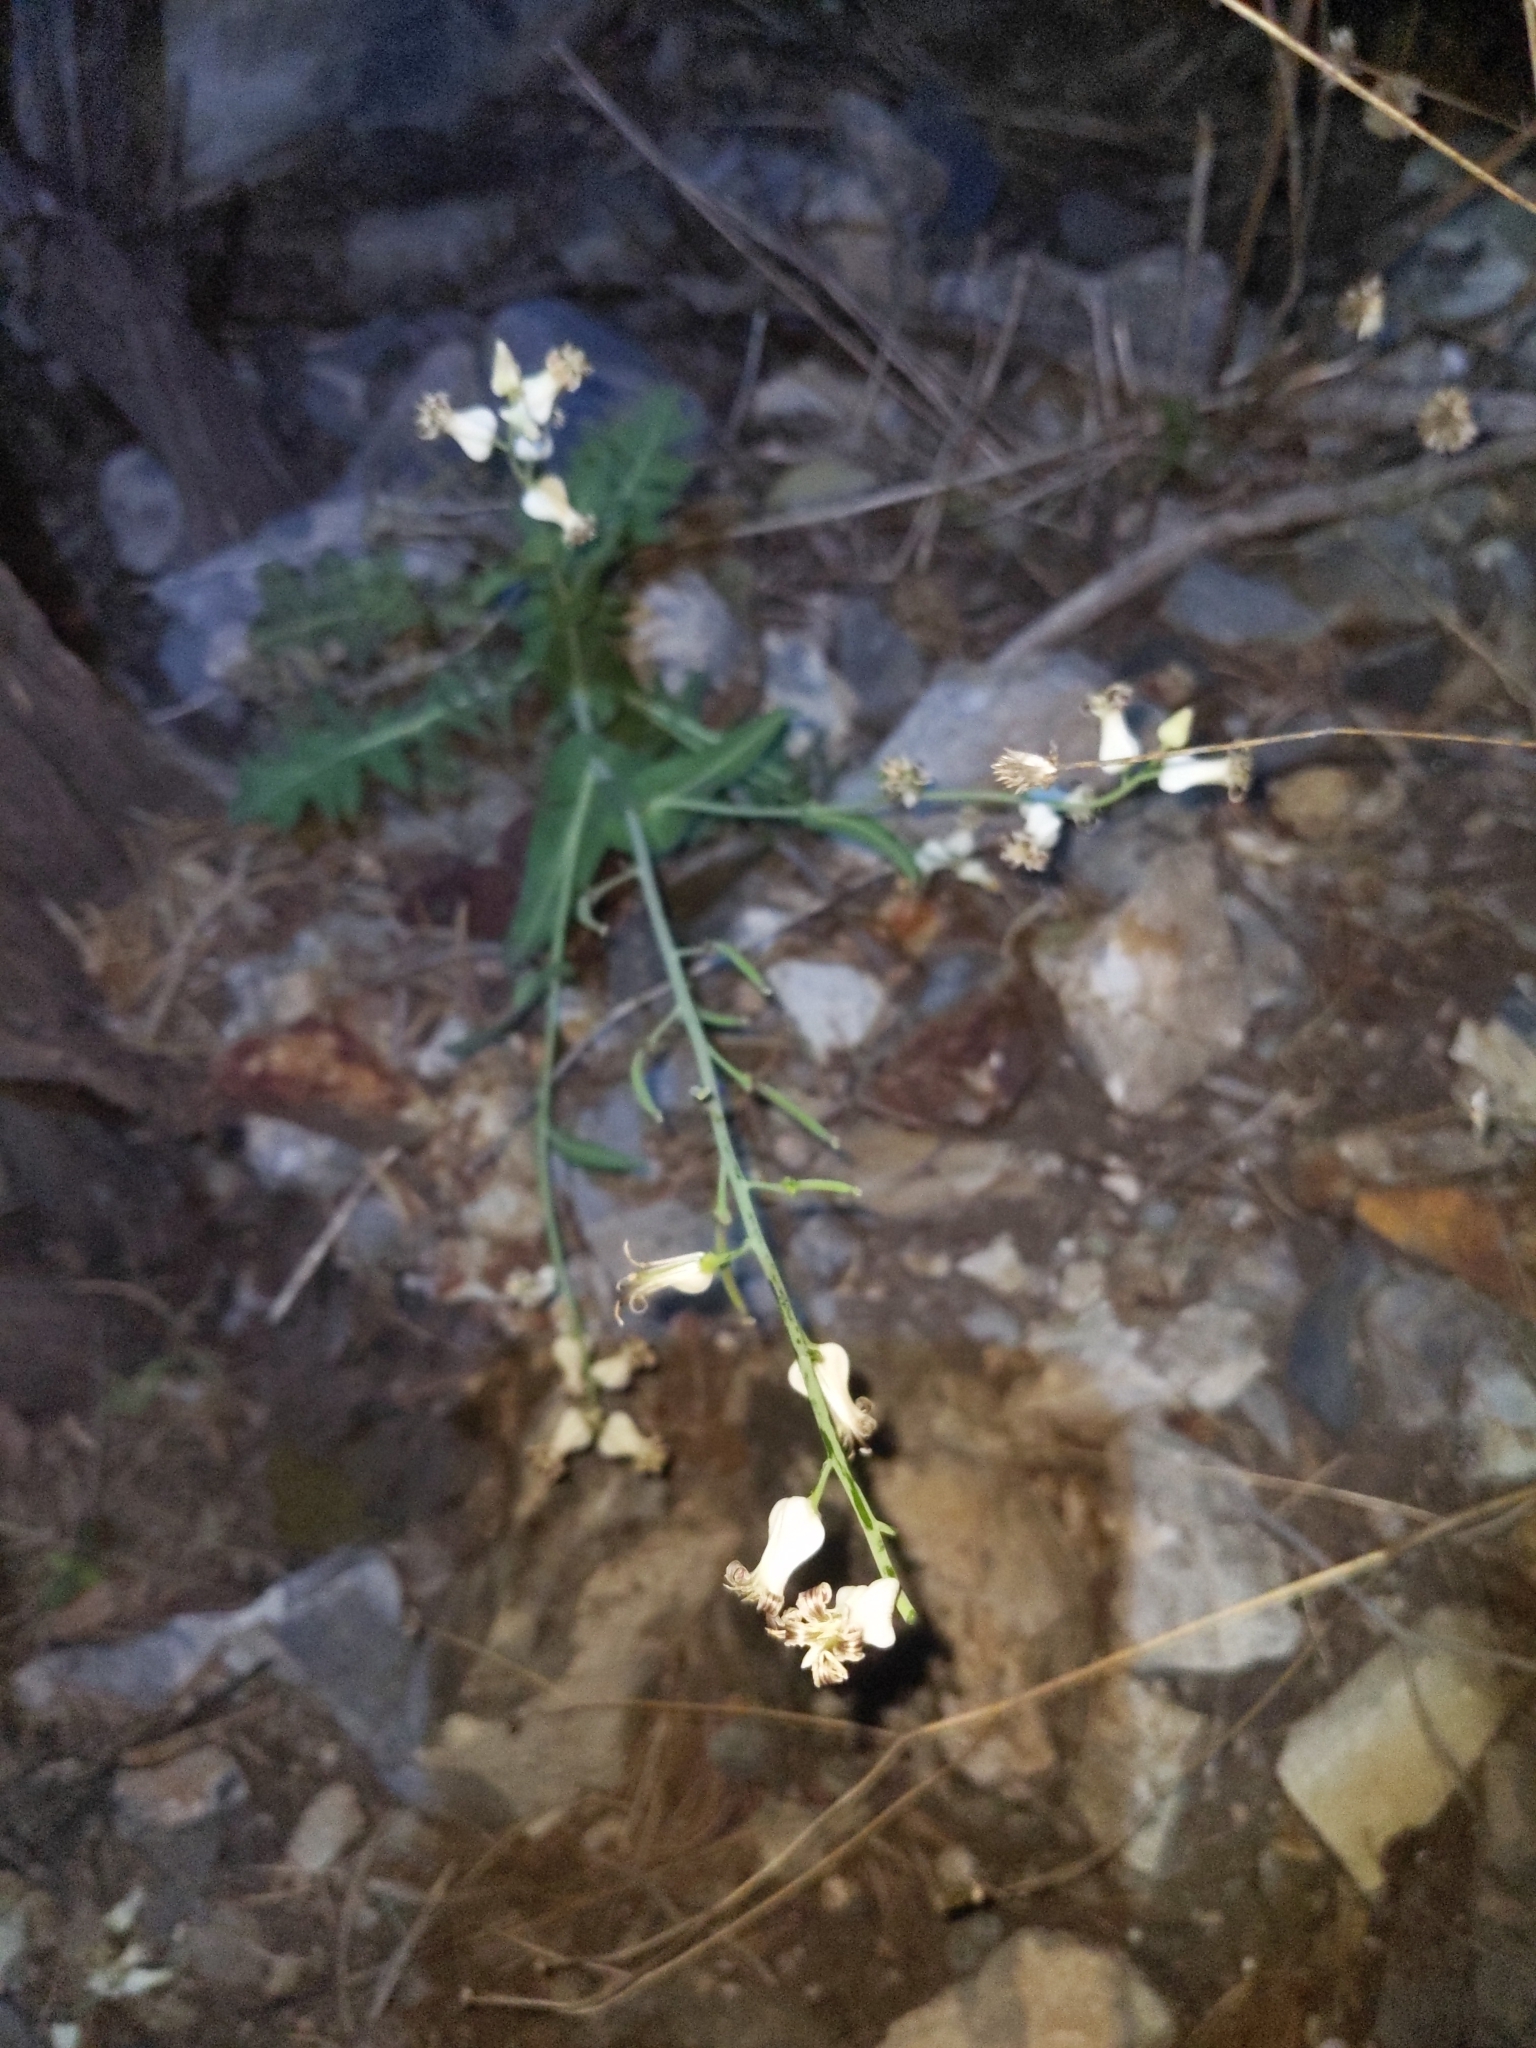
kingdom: Plantae
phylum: Tracheophyta
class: Magnoliopsida
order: Brassicales
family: Brassicaceae
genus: Streptanthus
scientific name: Streptanthus carinatus
